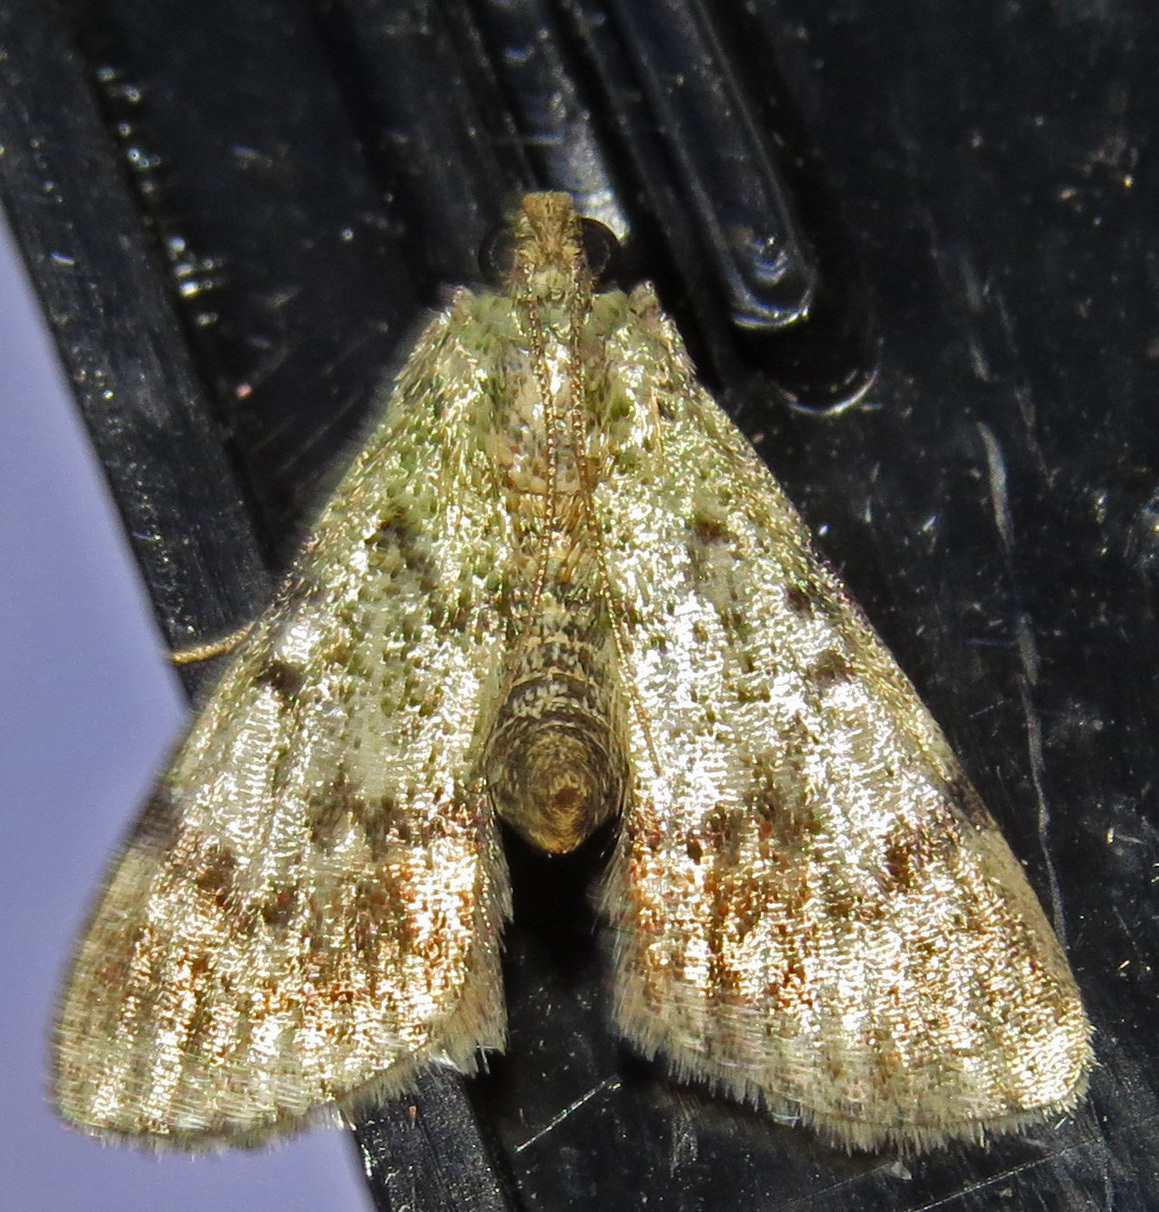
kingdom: Animalia
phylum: Arthropoda
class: Insecta
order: Lepidoptera
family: Pyralidae
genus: Epipaschia
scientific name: Epipaschia superatalis
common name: Dimorphic macalla moth
